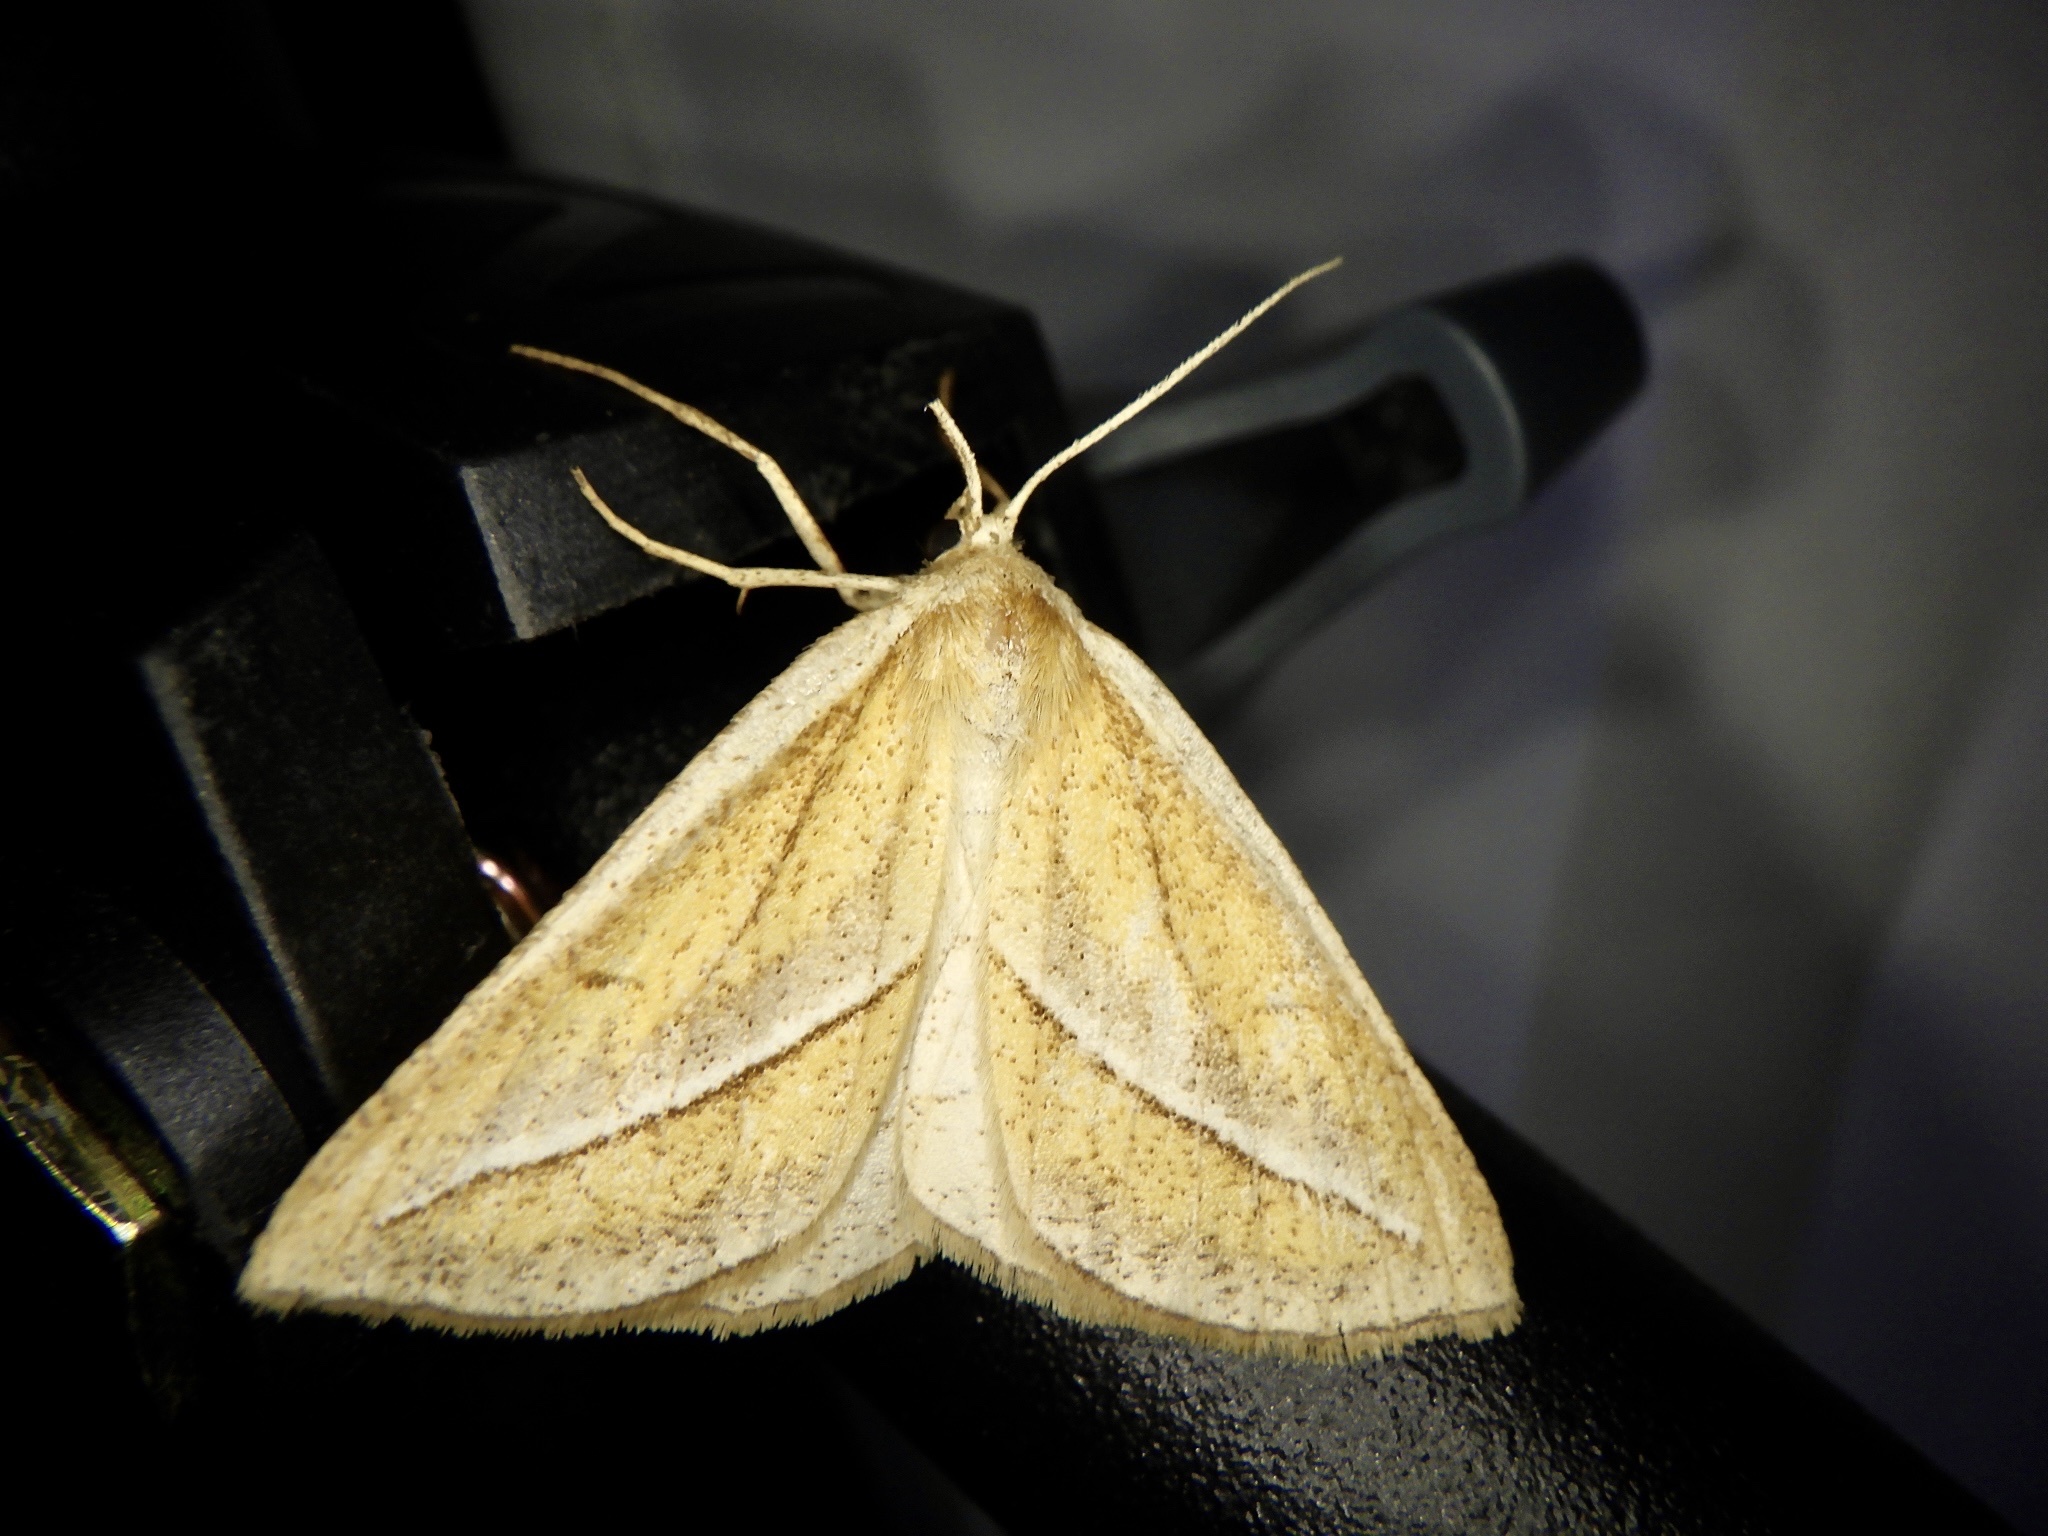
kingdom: Animalia
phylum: Arthropoda
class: Insecta
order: Lepidoptera
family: Geometridae
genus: Chariaspilates
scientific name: Chariaspilates formosaria
